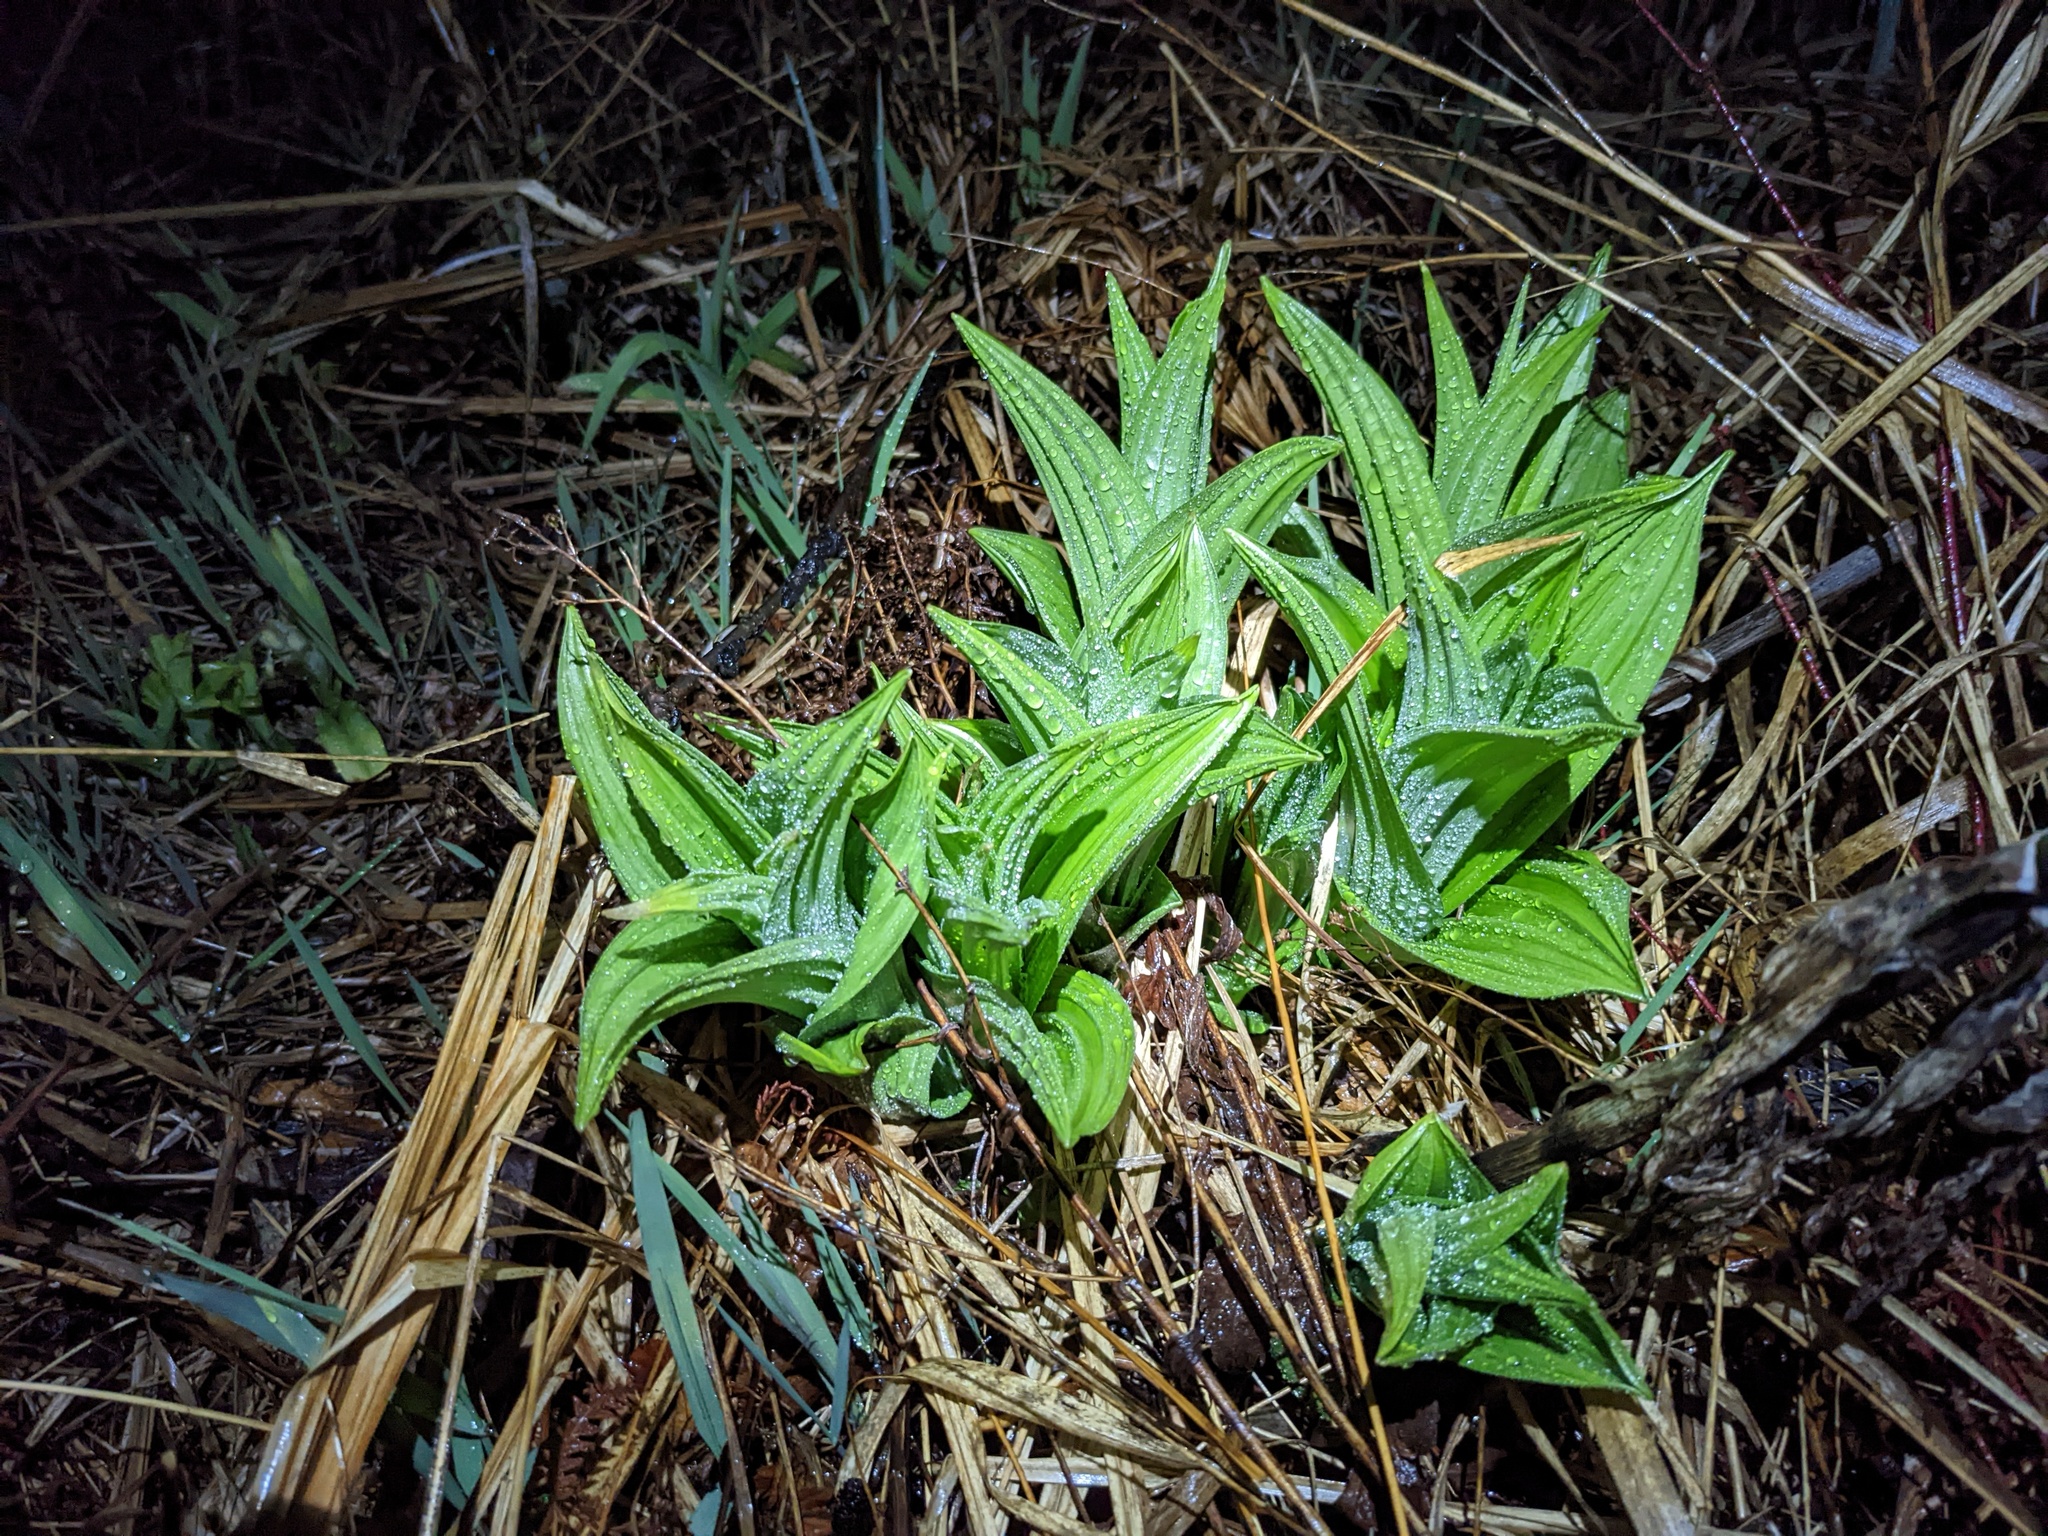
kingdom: Plantae
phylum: Tracheophyta
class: Liliopsida
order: Liliales
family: Melanthiaceae
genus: Veratrum
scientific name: Veratrum viride
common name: American false hellebore
